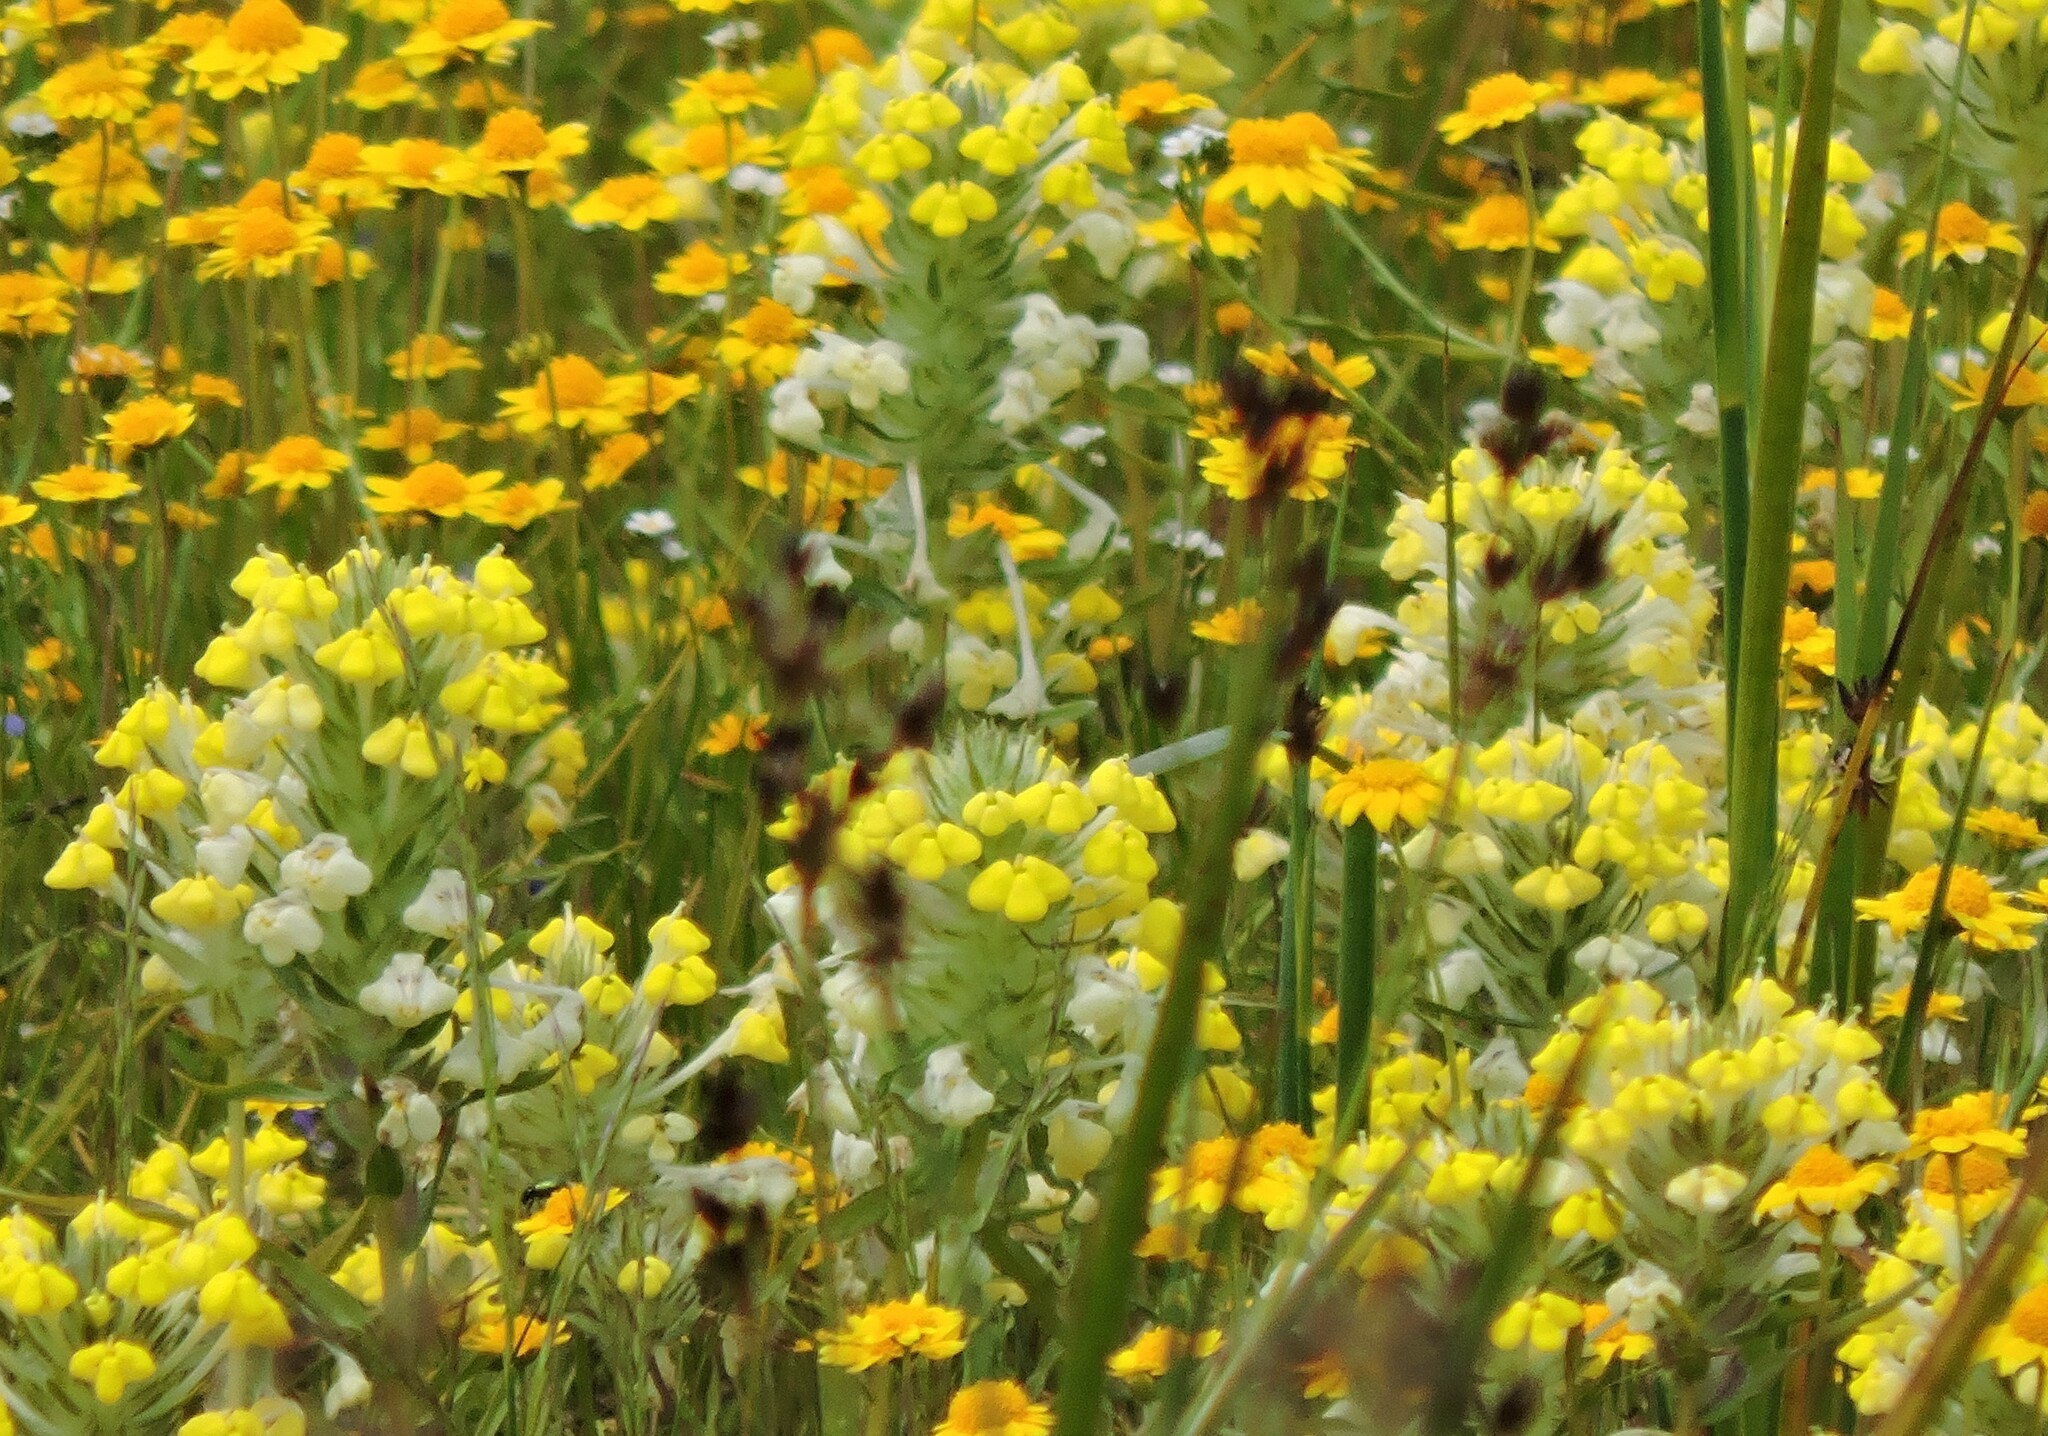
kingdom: Plantae
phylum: Tracheophyta
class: Magnoliopsida
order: Lamiales
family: Orobanchaceae
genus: Castilleja
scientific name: Castilleja campestris
